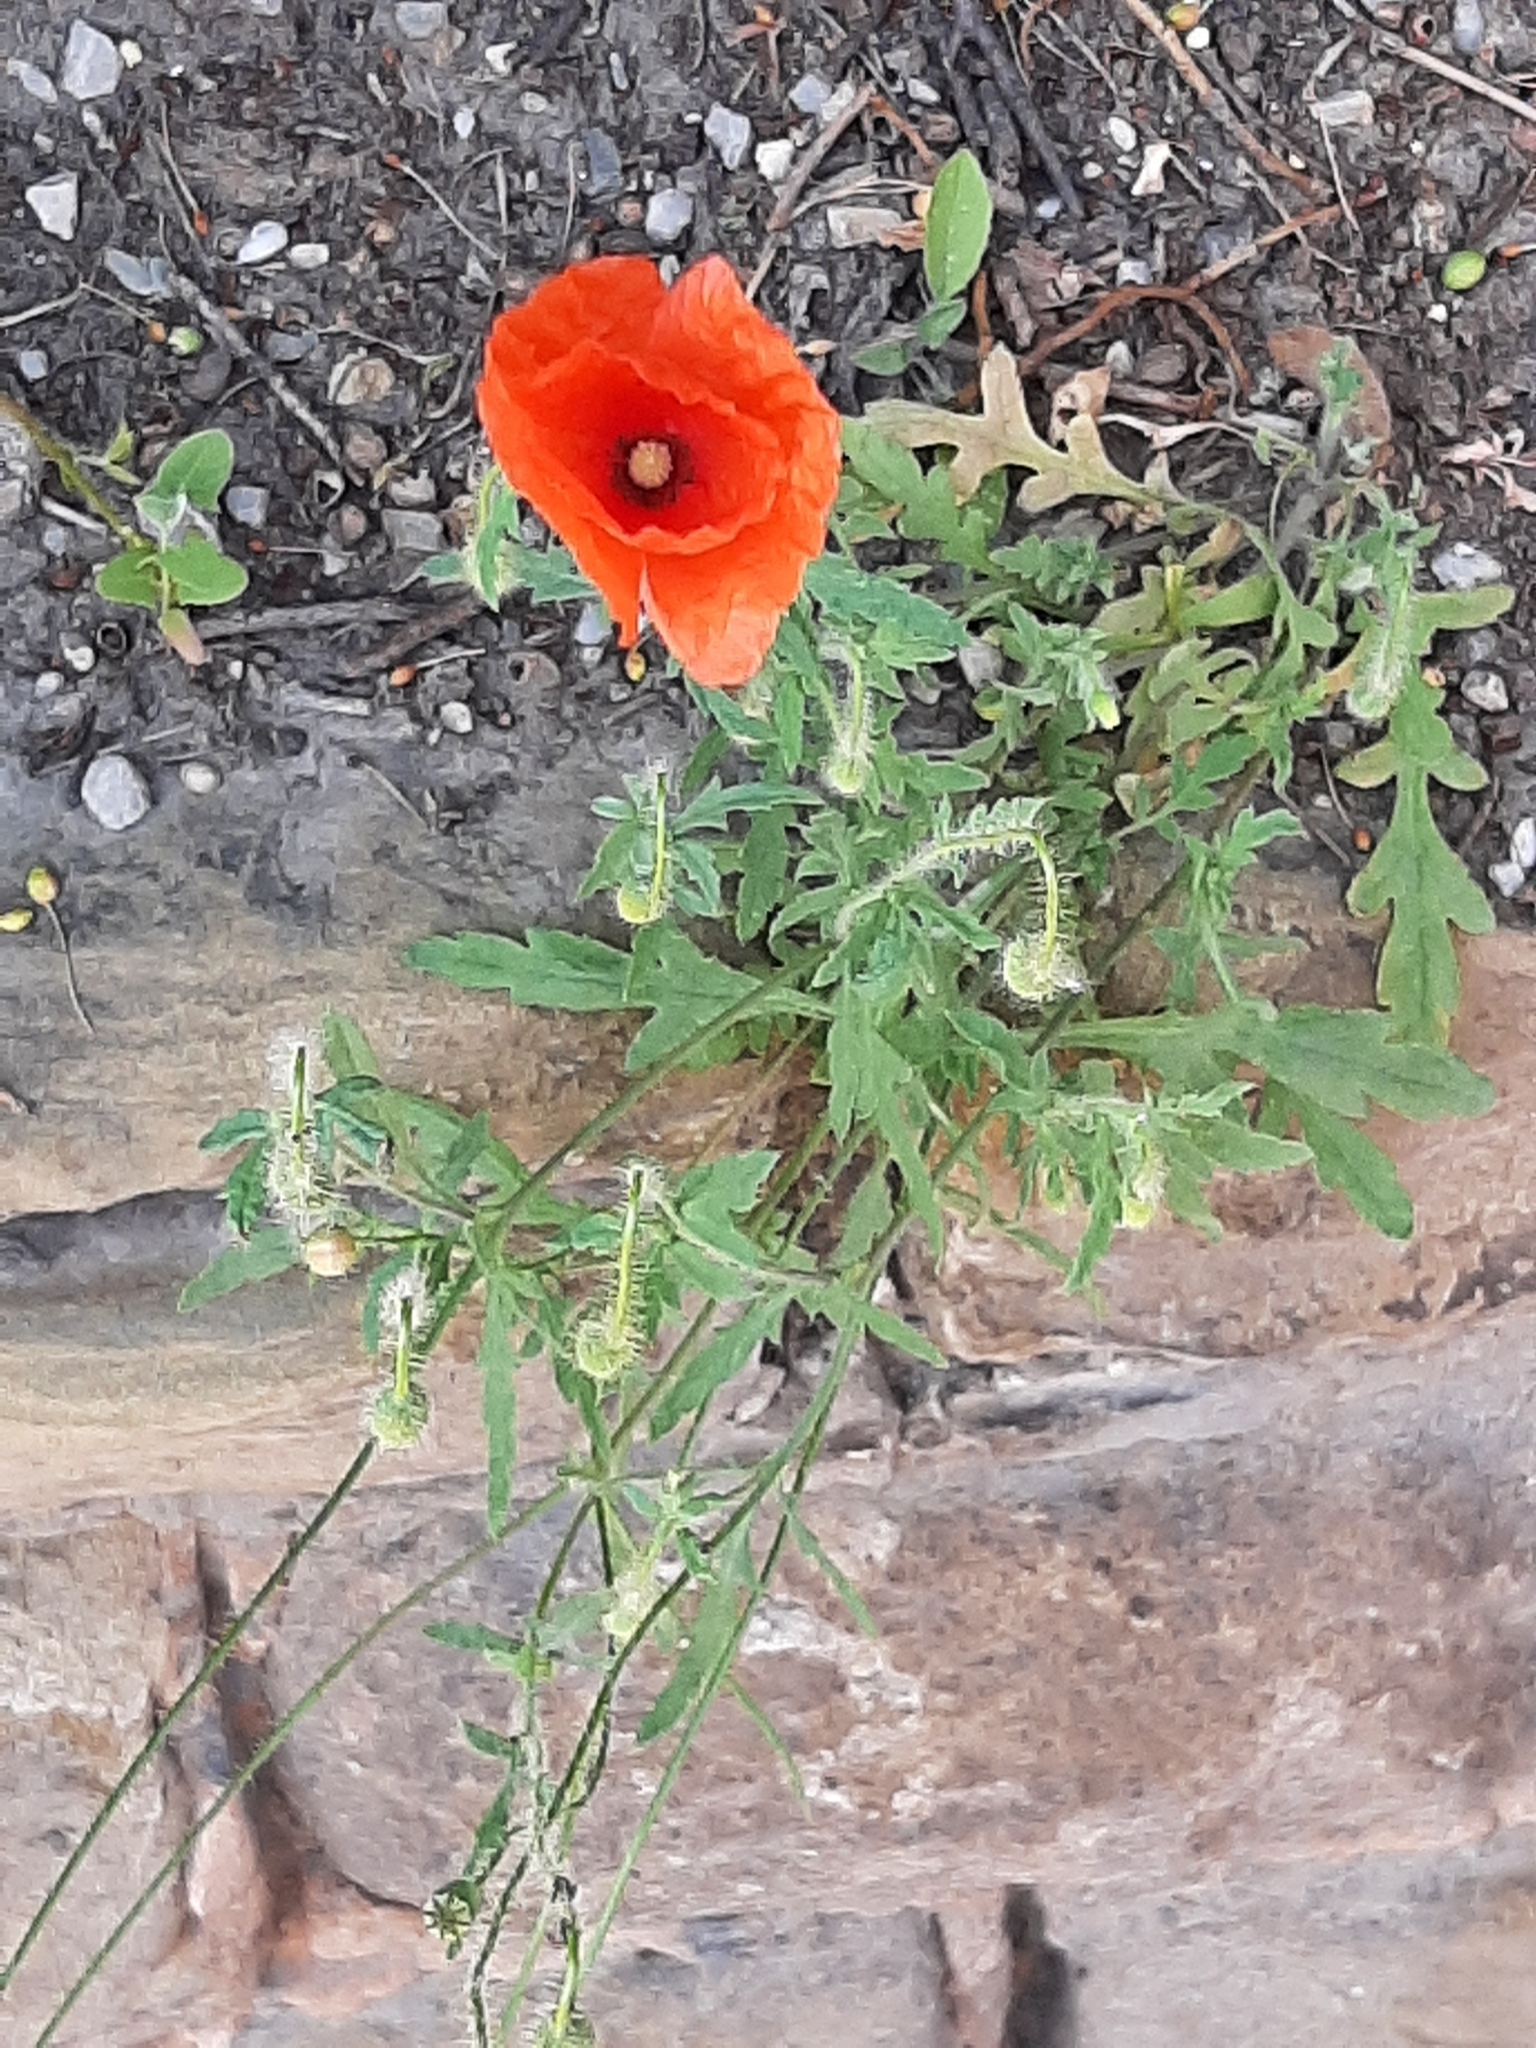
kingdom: Plantae
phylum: Tracheophyta
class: Magnoliopsida
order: Ranunculales
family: Papaveraceae
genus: Papaver
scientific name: Papaver rhoeas
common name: Corn poppy
